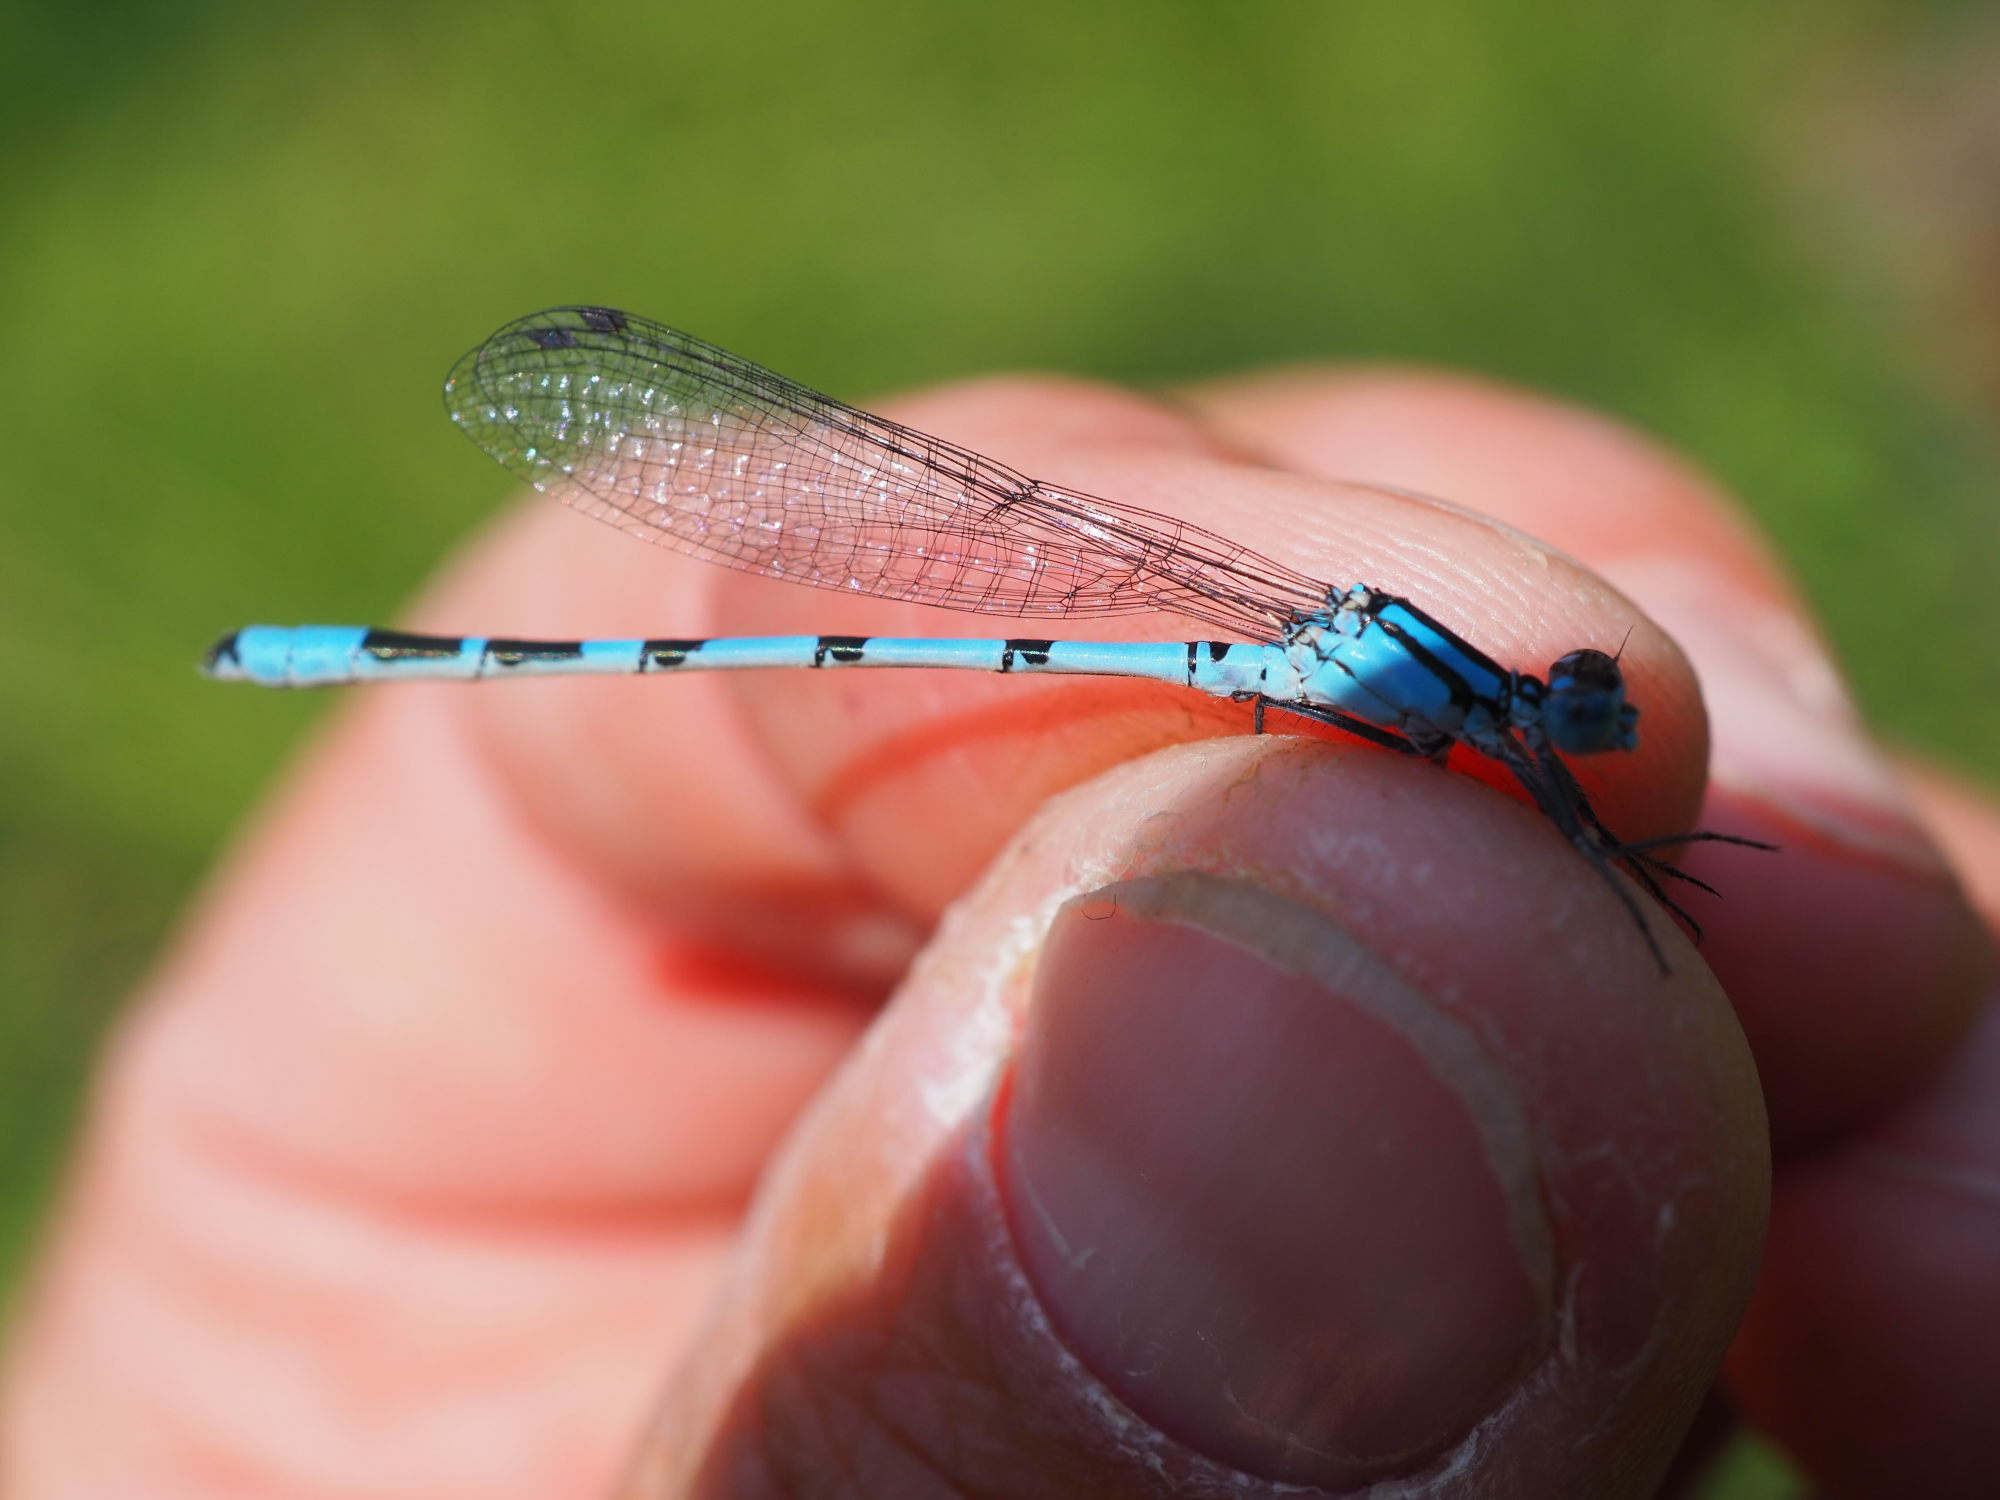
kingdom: Animalia
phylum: Arthropoda
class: Insecta
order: Odonata
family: Coenagrionidae
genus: Enallagma
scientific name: Enallagma cyathigerum
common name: Common blue damselfly
